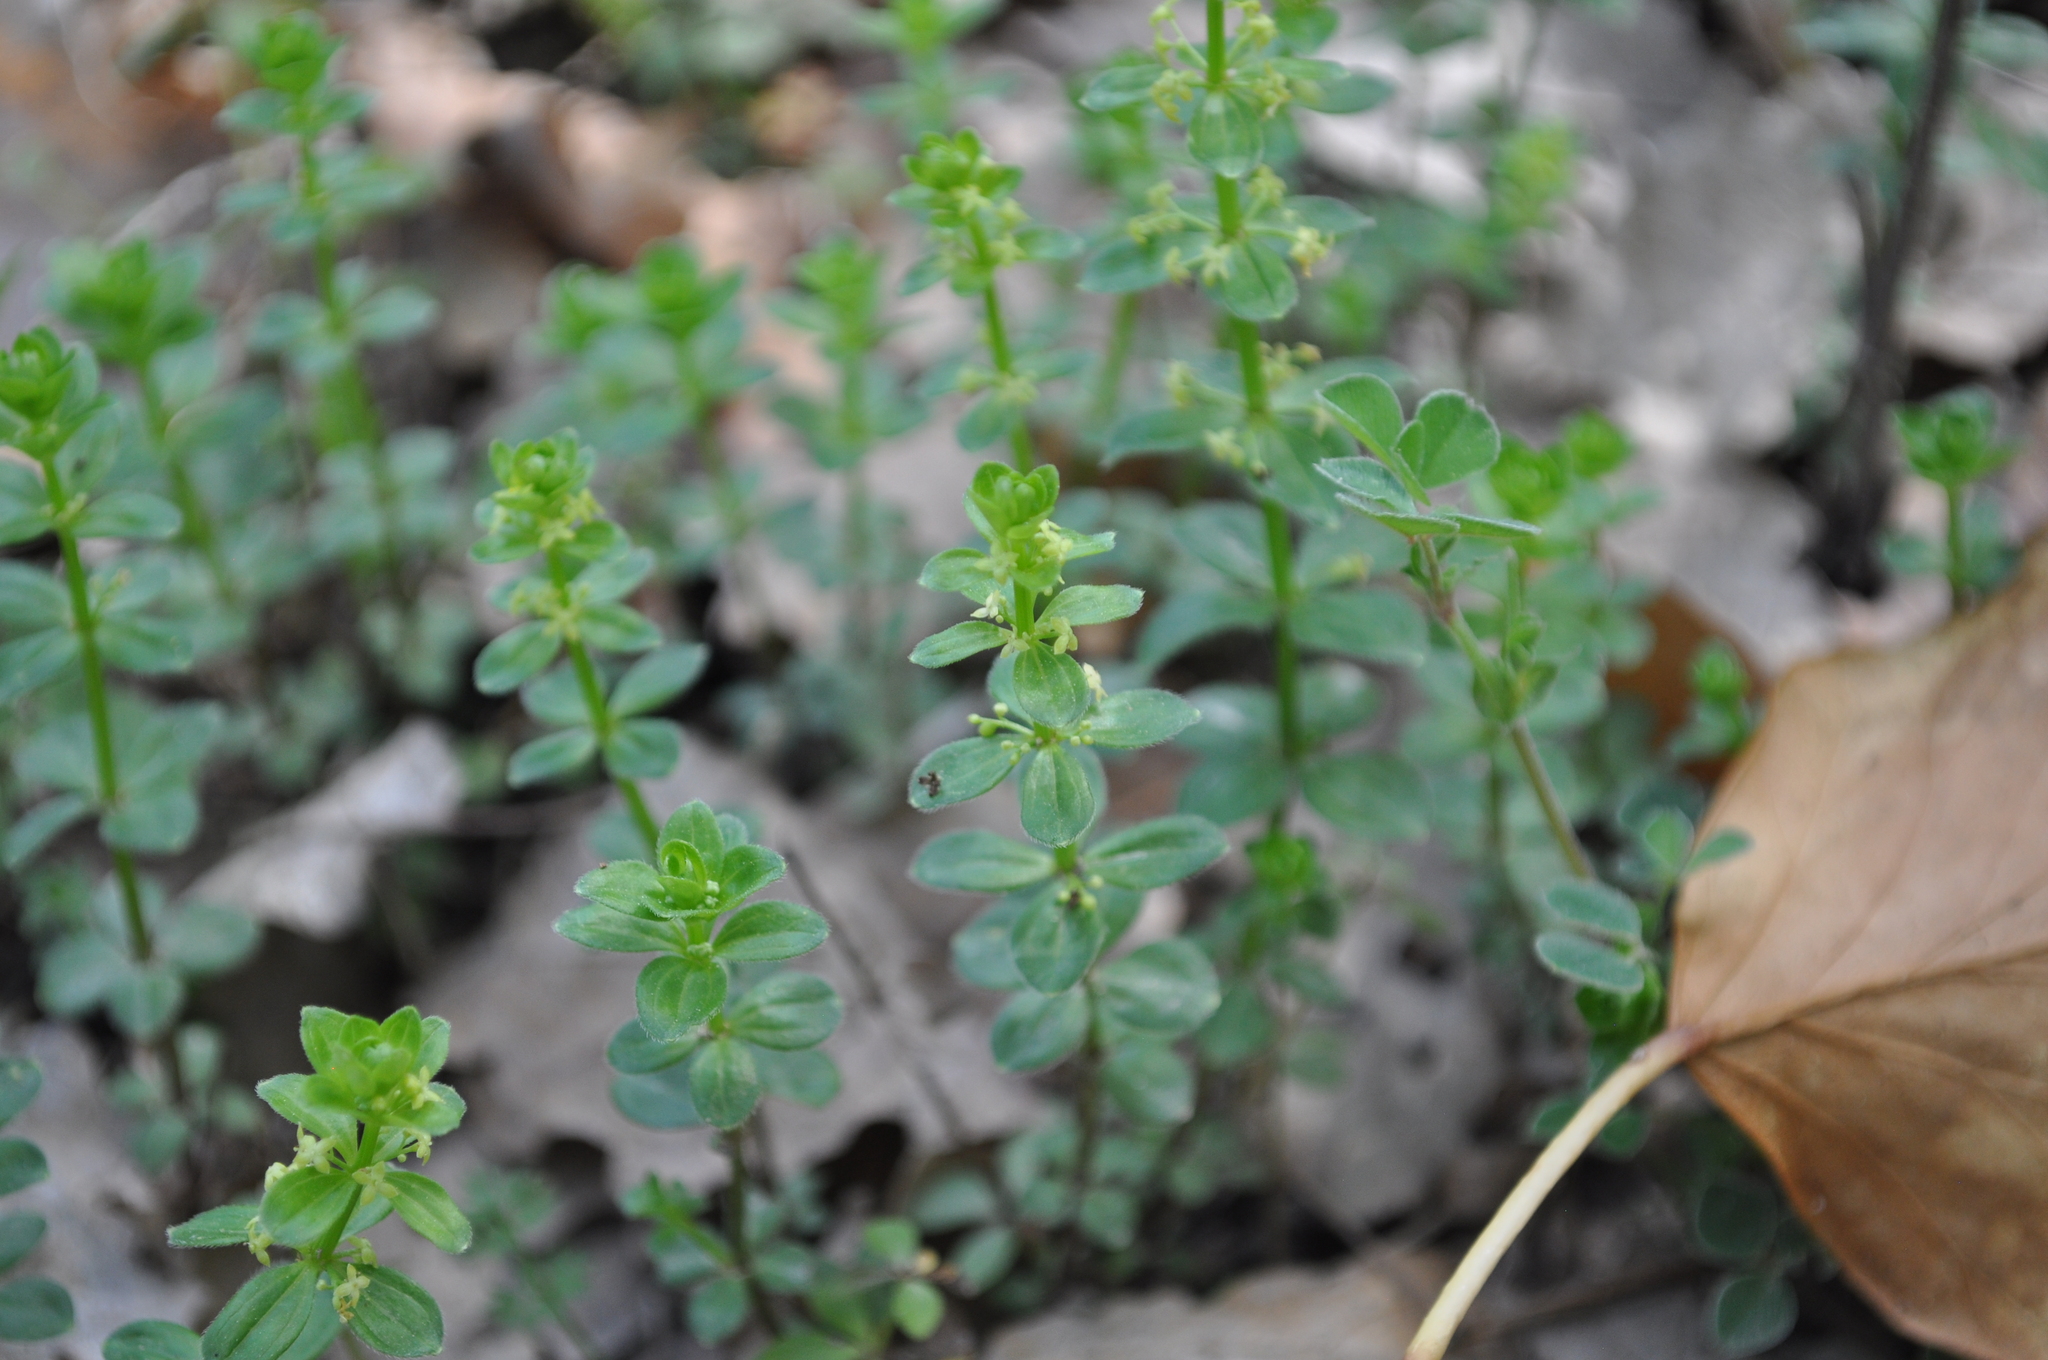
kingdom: Plantae
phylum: Tracheophyta
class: Magnoliopsida
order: Gentianales
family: Rubiaceae
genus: Cruciata
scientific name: Cruciata glabra
